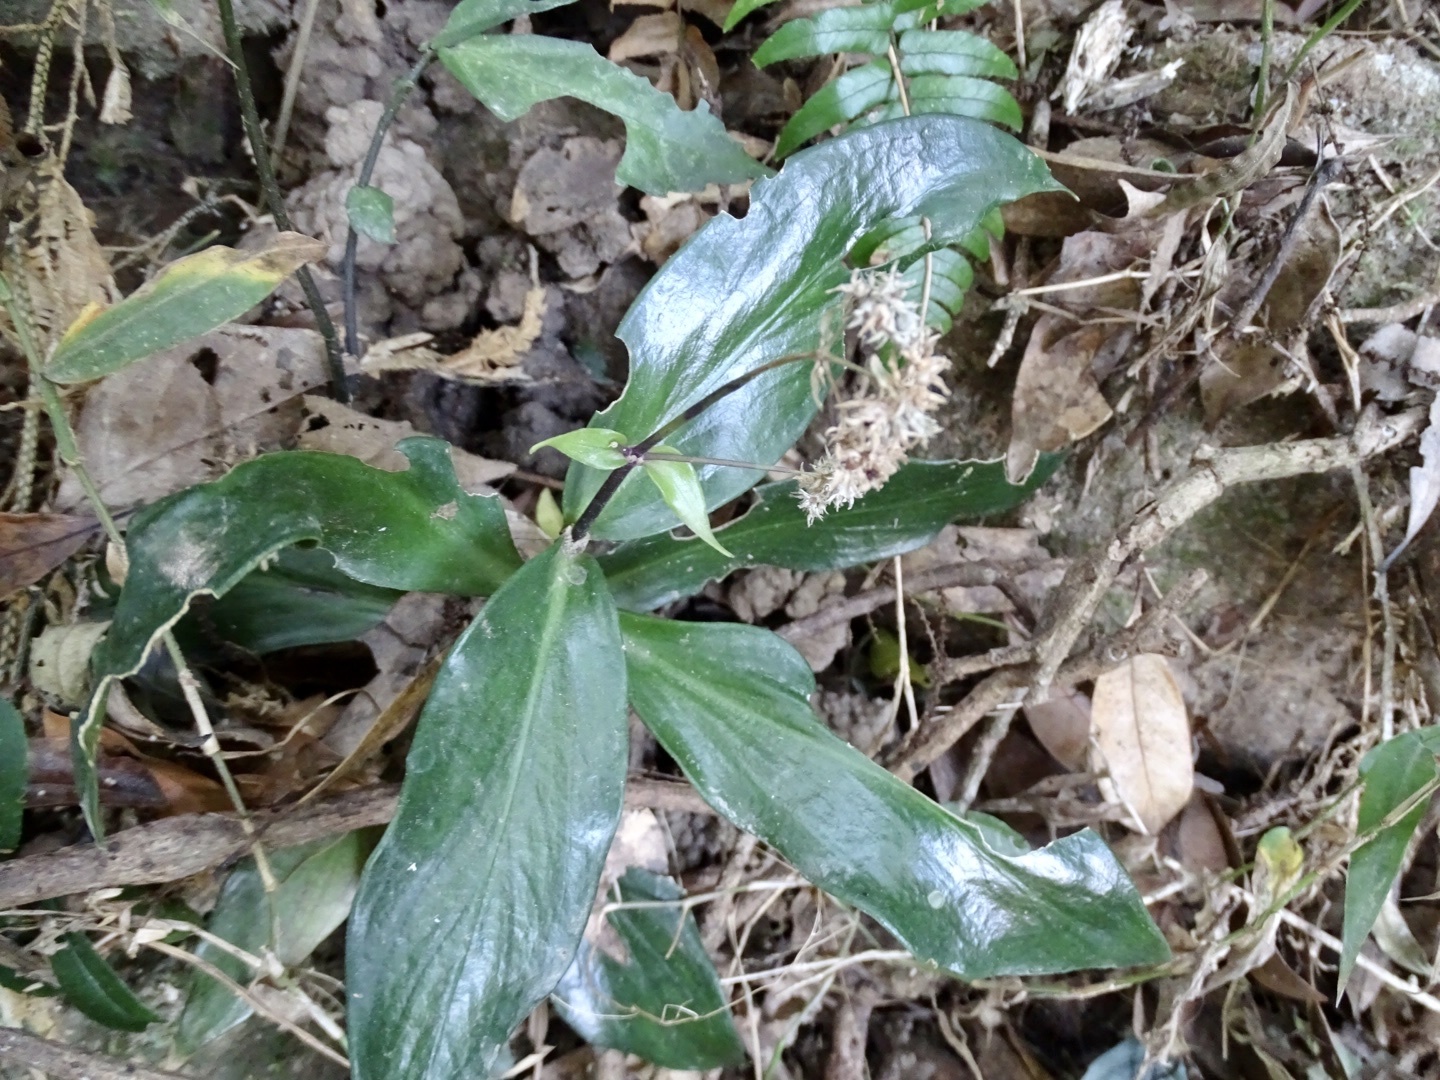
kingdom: Plantae
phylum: Tracheophyta
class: Magnoliopsida
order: Gentianales
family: Rubiaceae
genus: Hedyotis
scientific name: Hedyotis shiuyingiae
